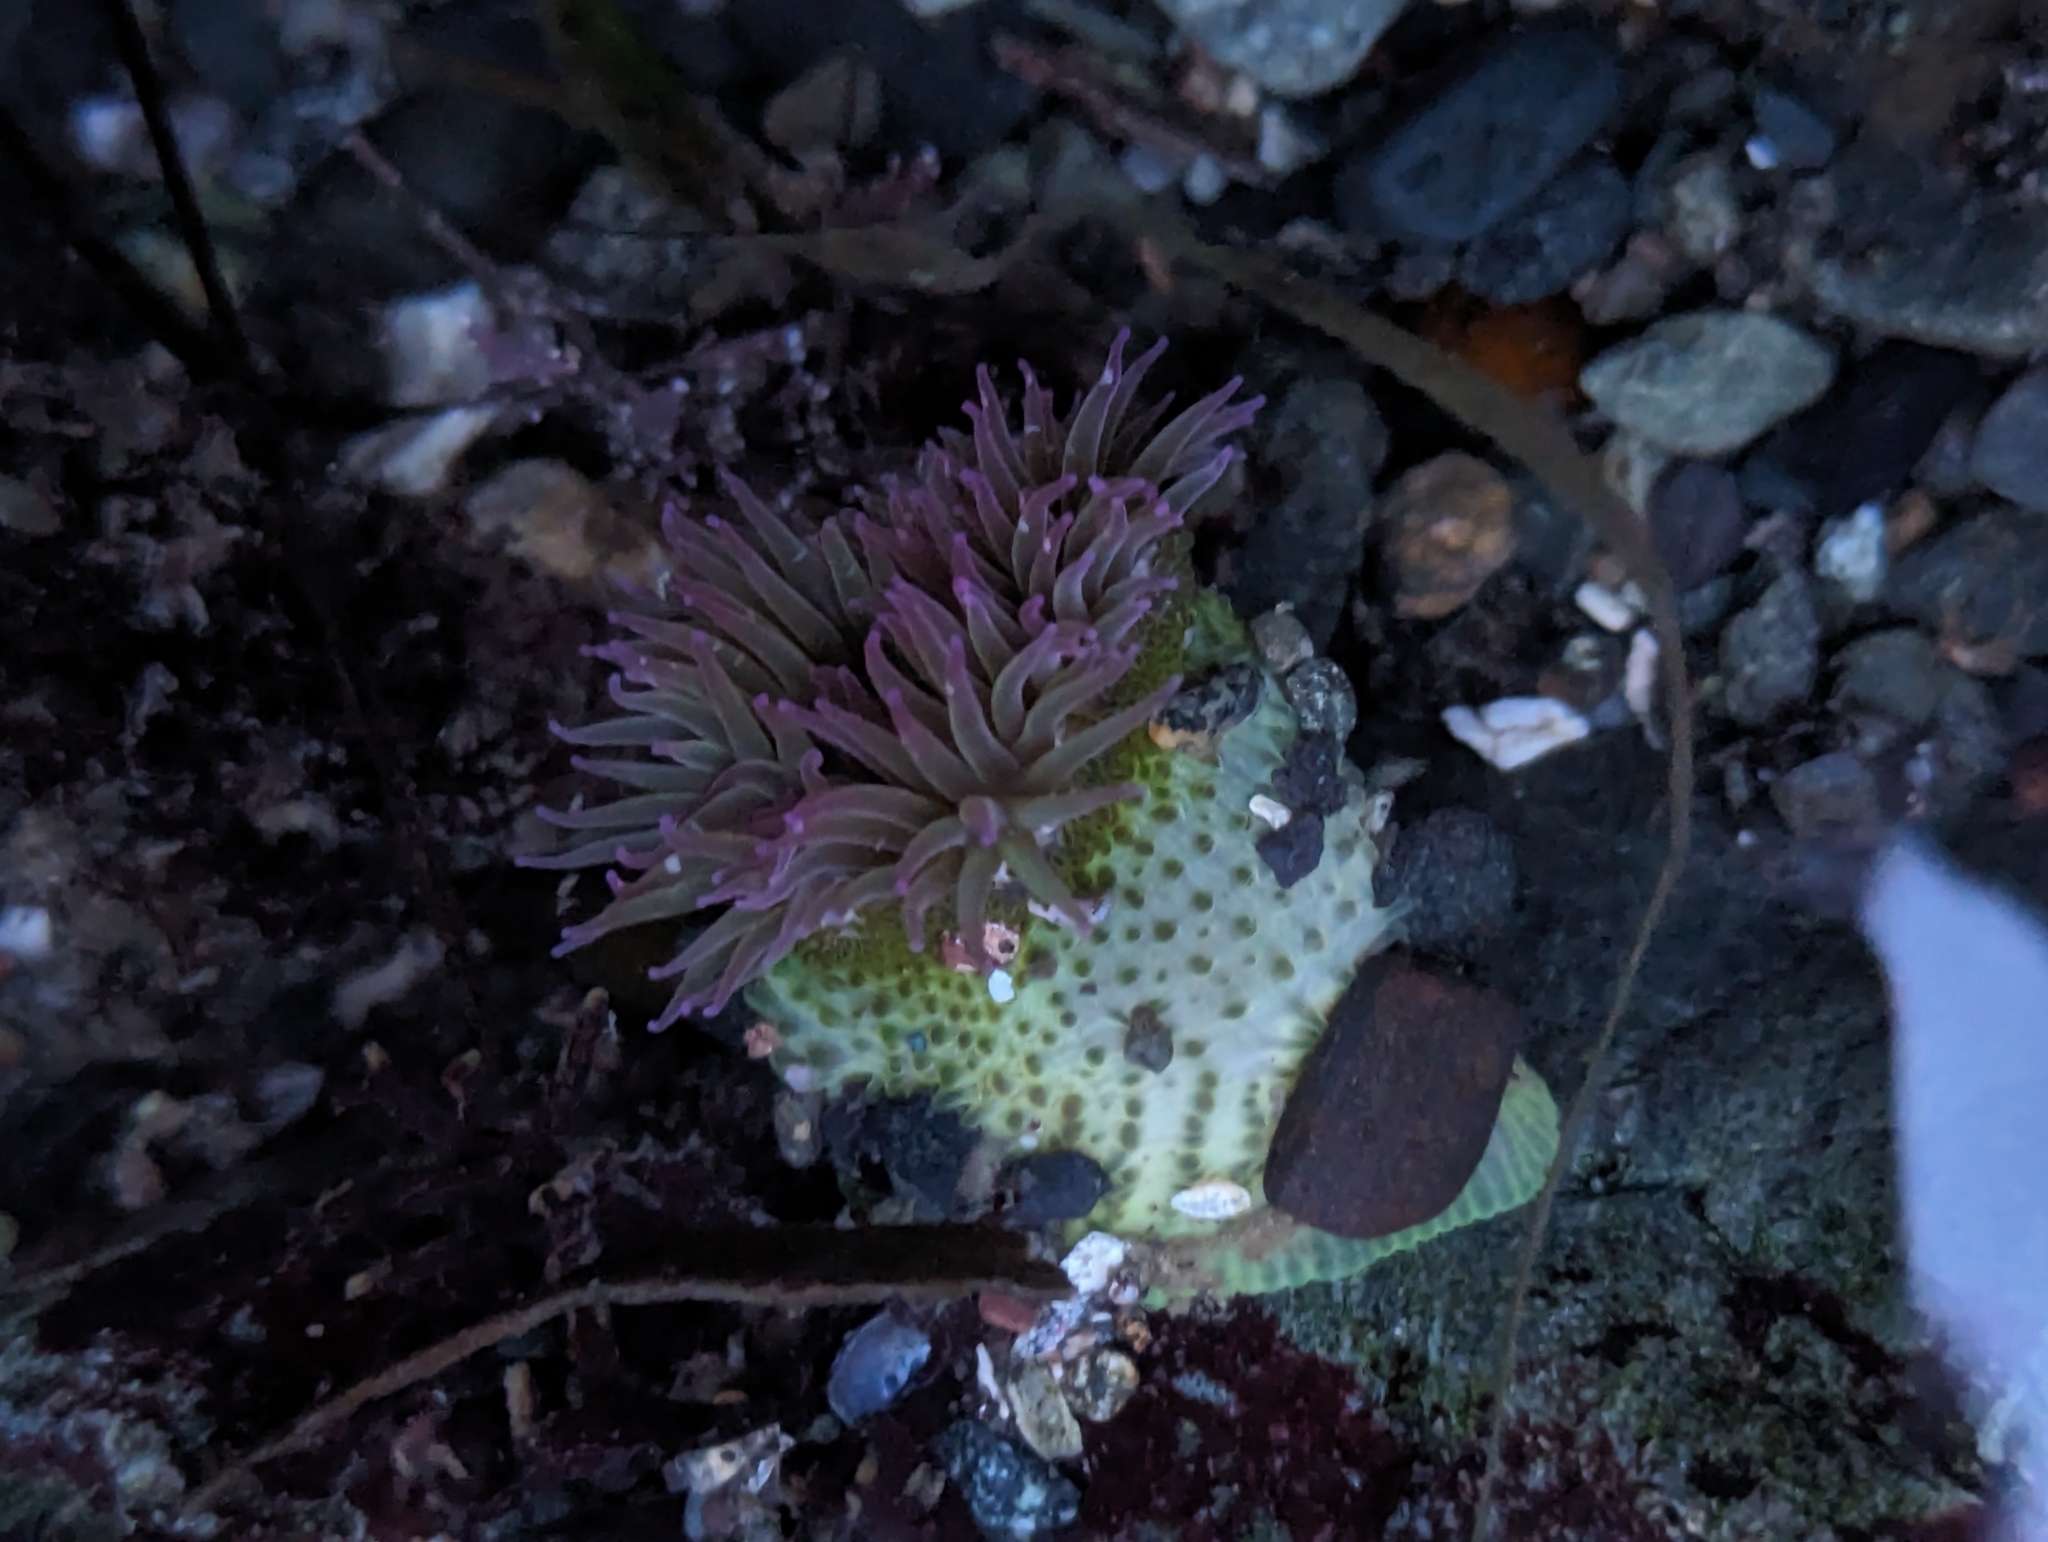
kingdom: Animalia
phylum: Cnidaria
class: Anthozoa
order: Actiniaria
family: Actiniidae
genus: Anthopleura
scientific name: Anthopleura elegantissima
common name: Clonal anemone
